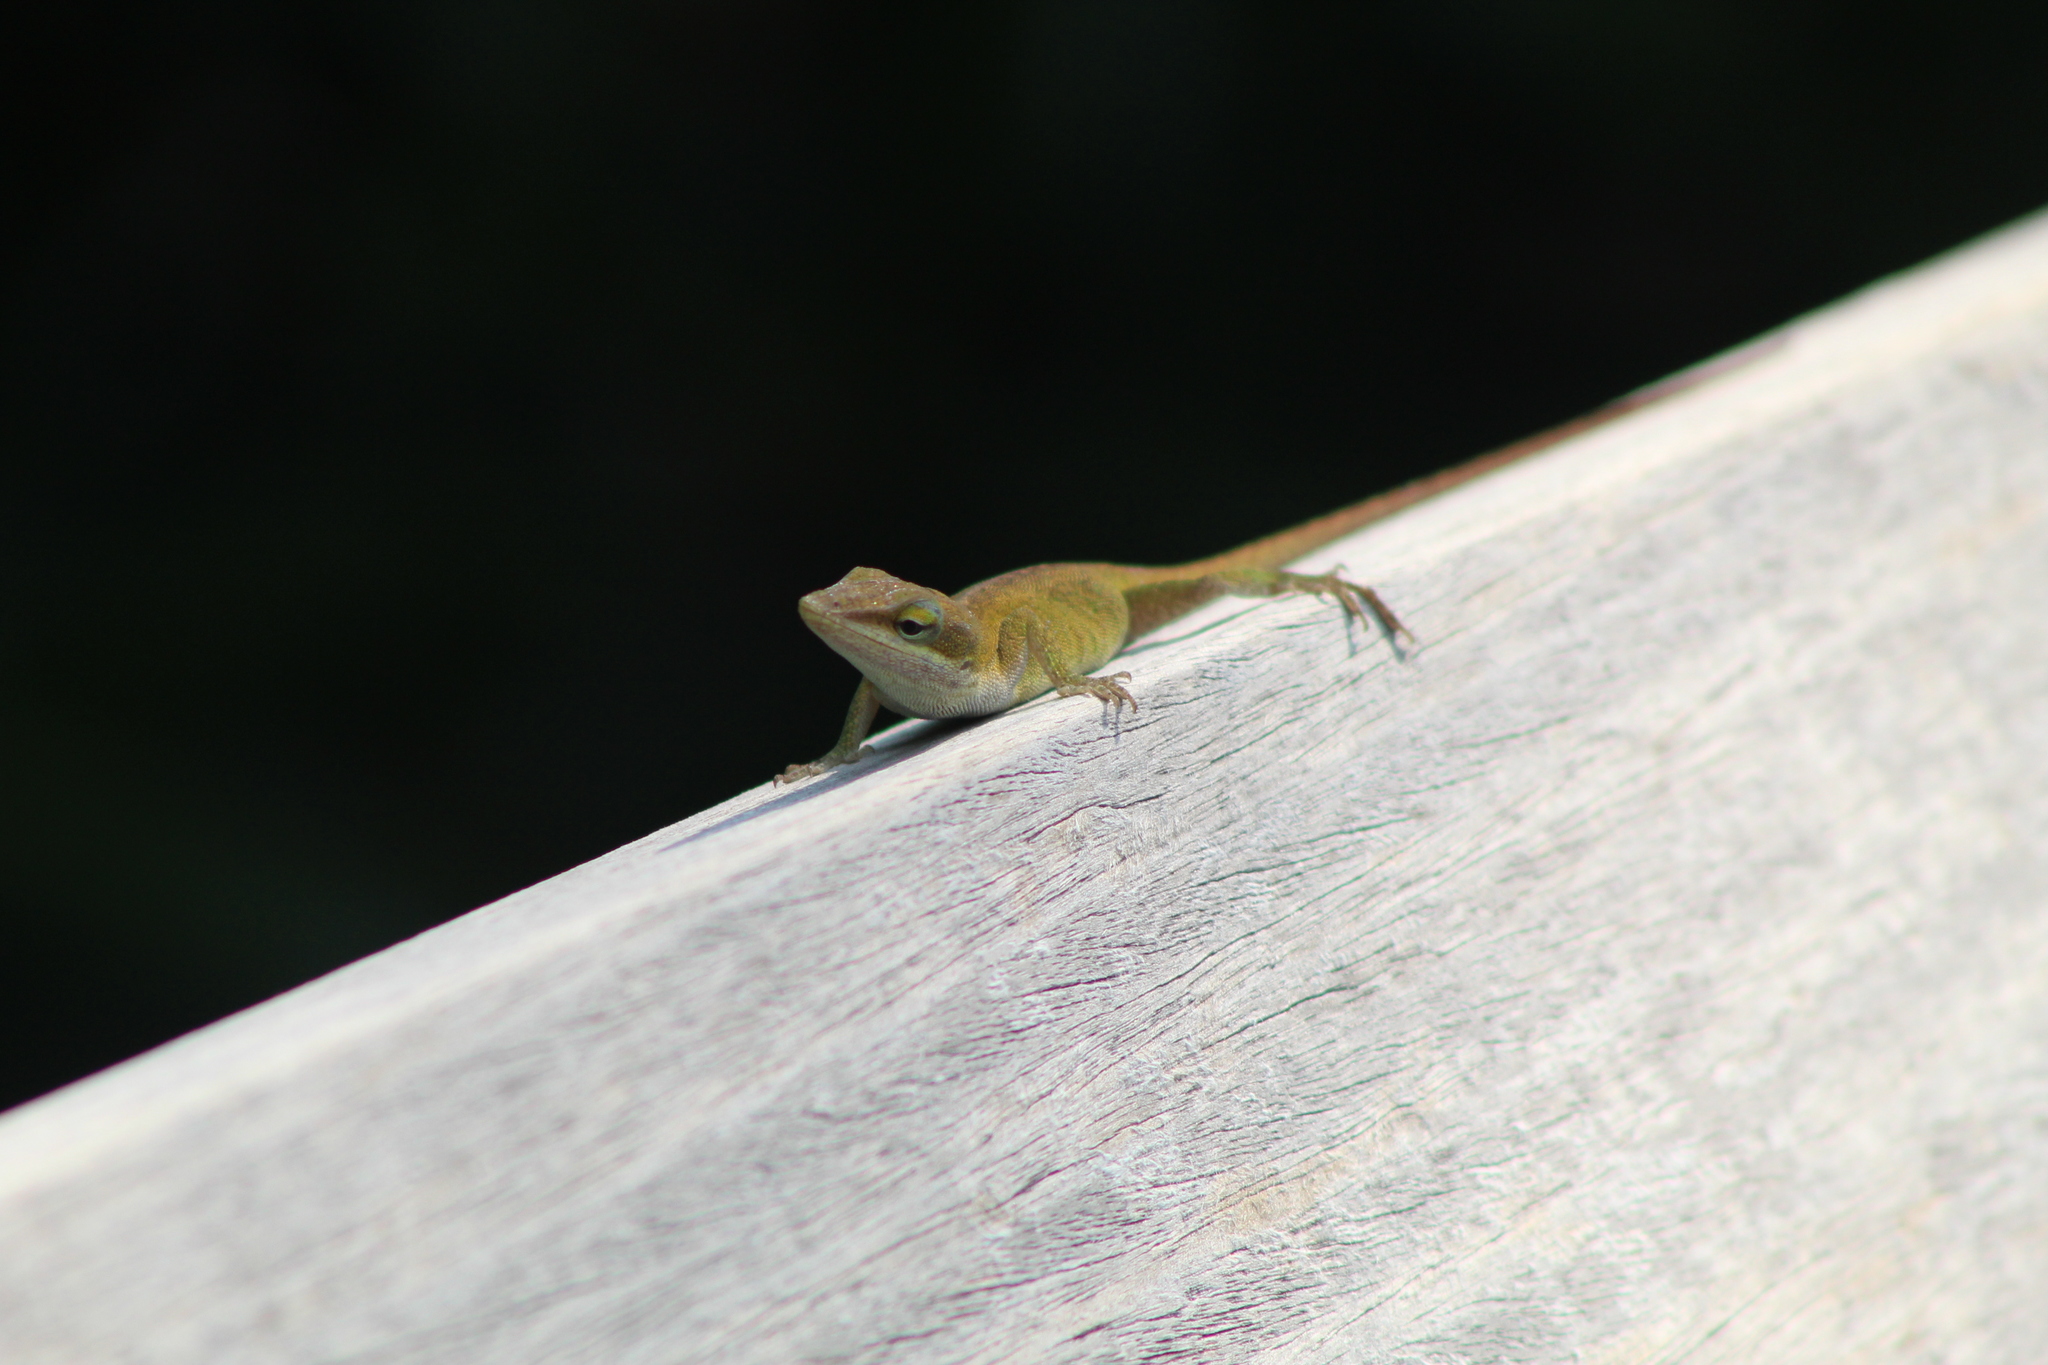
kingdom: Animalia
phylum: Chordata
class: Squamata
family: Dactyloidae
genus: Anolis
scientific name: Anolis carolinensis
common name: Green anole
